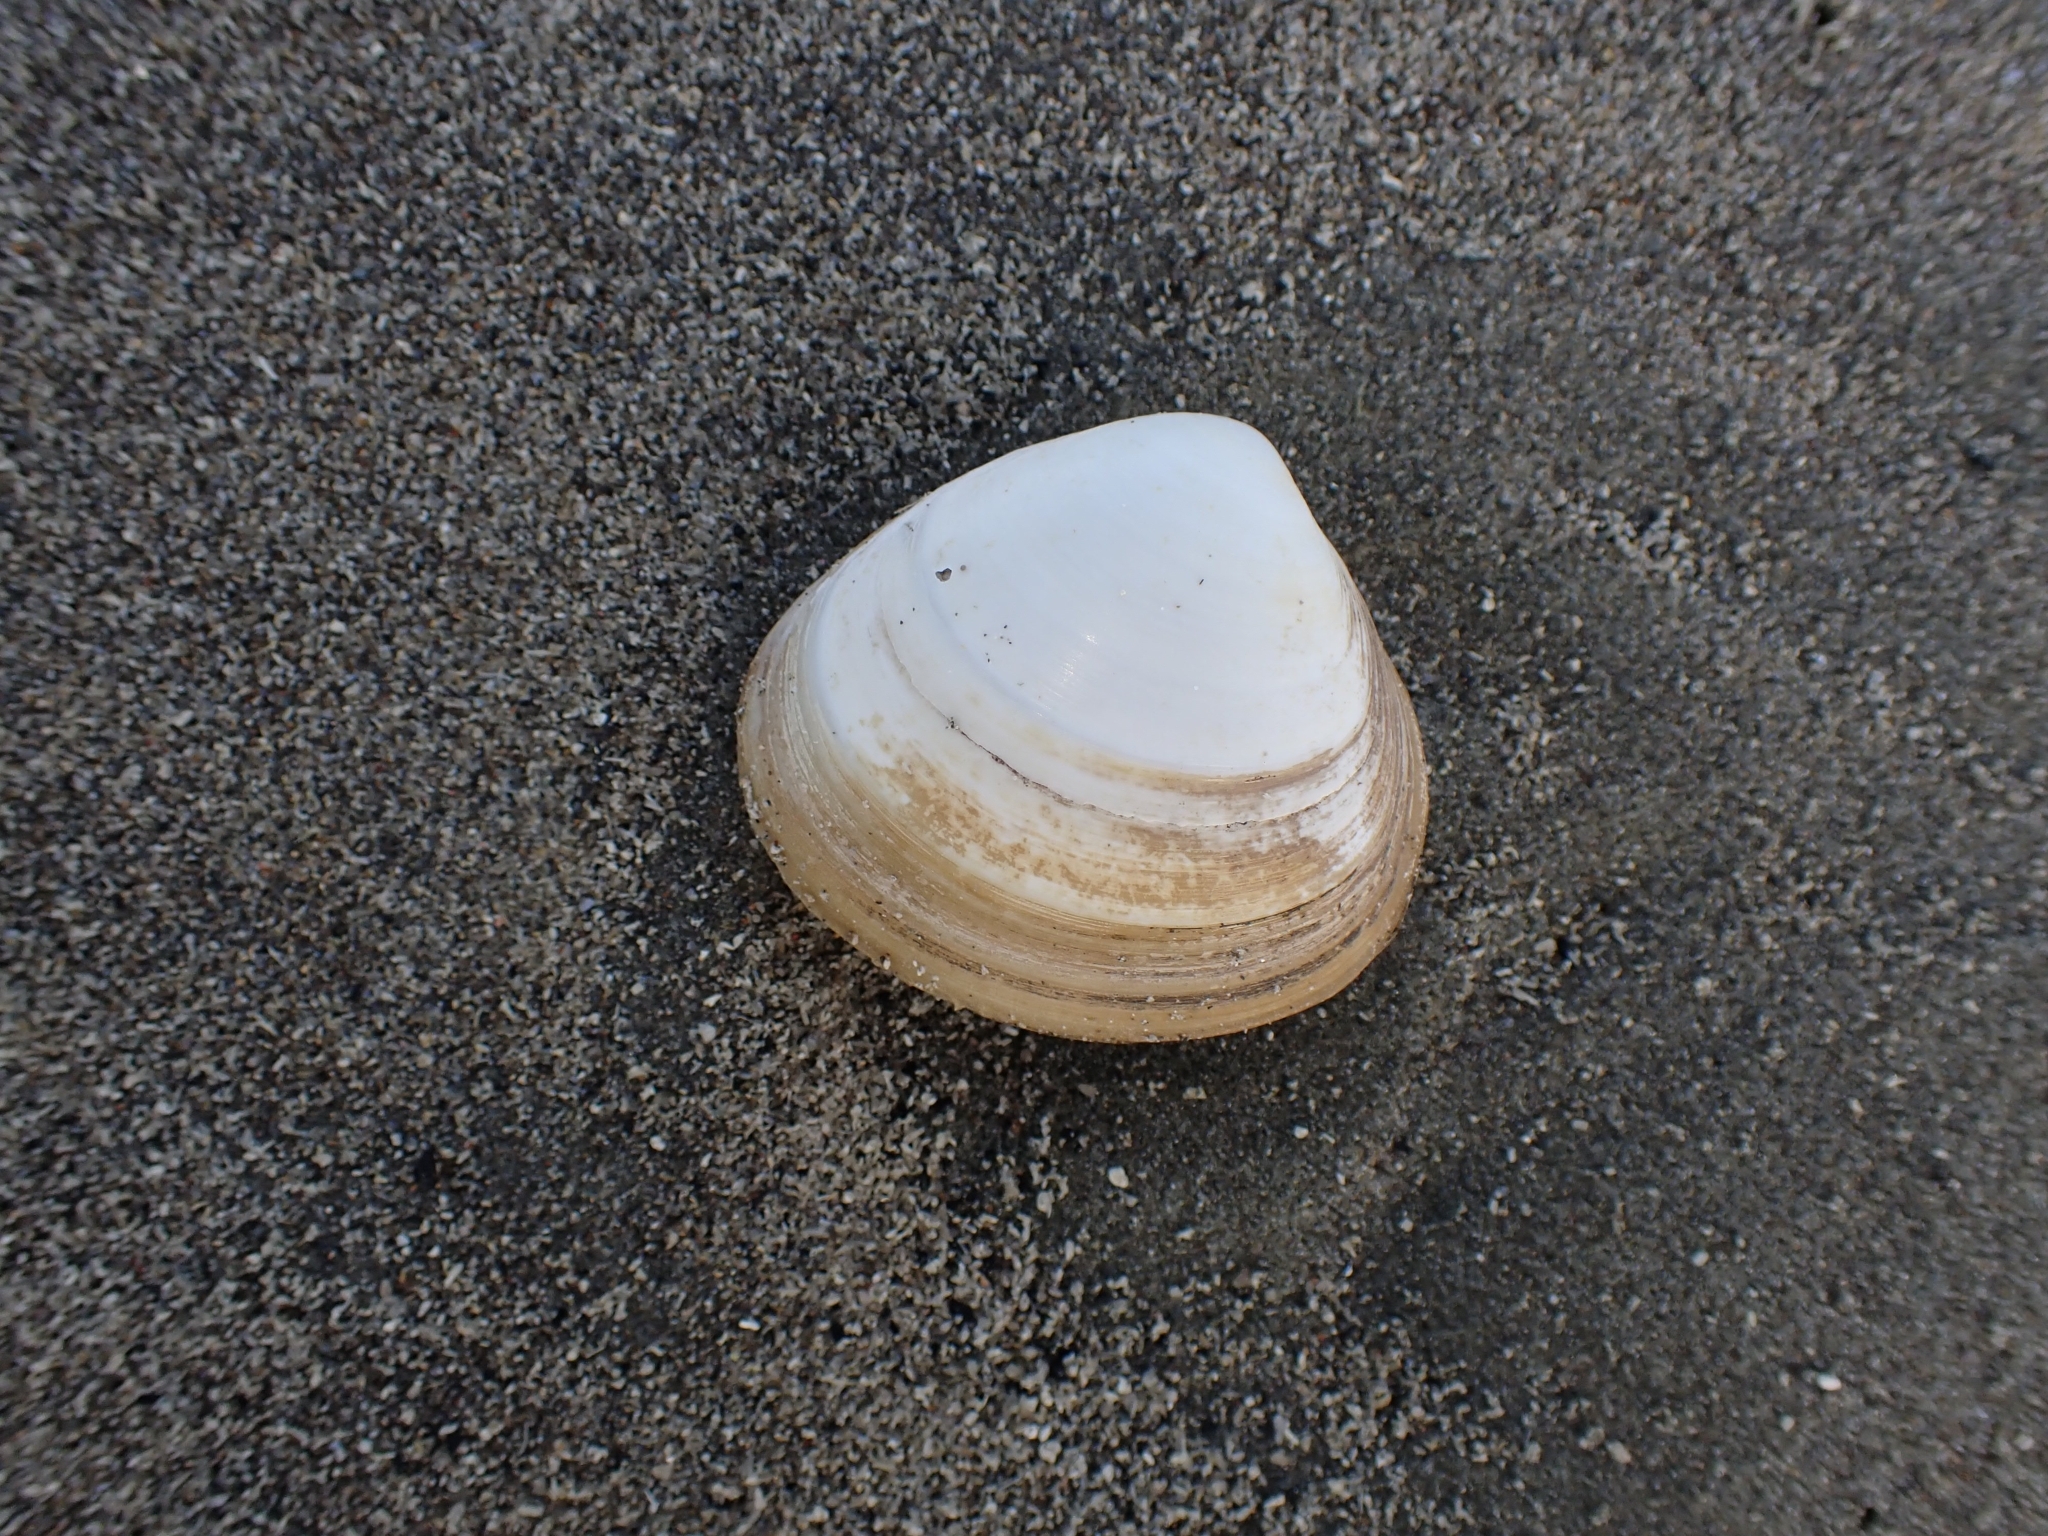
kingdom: Animalia
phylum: Mollusca
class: Bivalvia
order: Venerida
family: Mactridae
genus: Spisula
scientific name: Spisula discors
